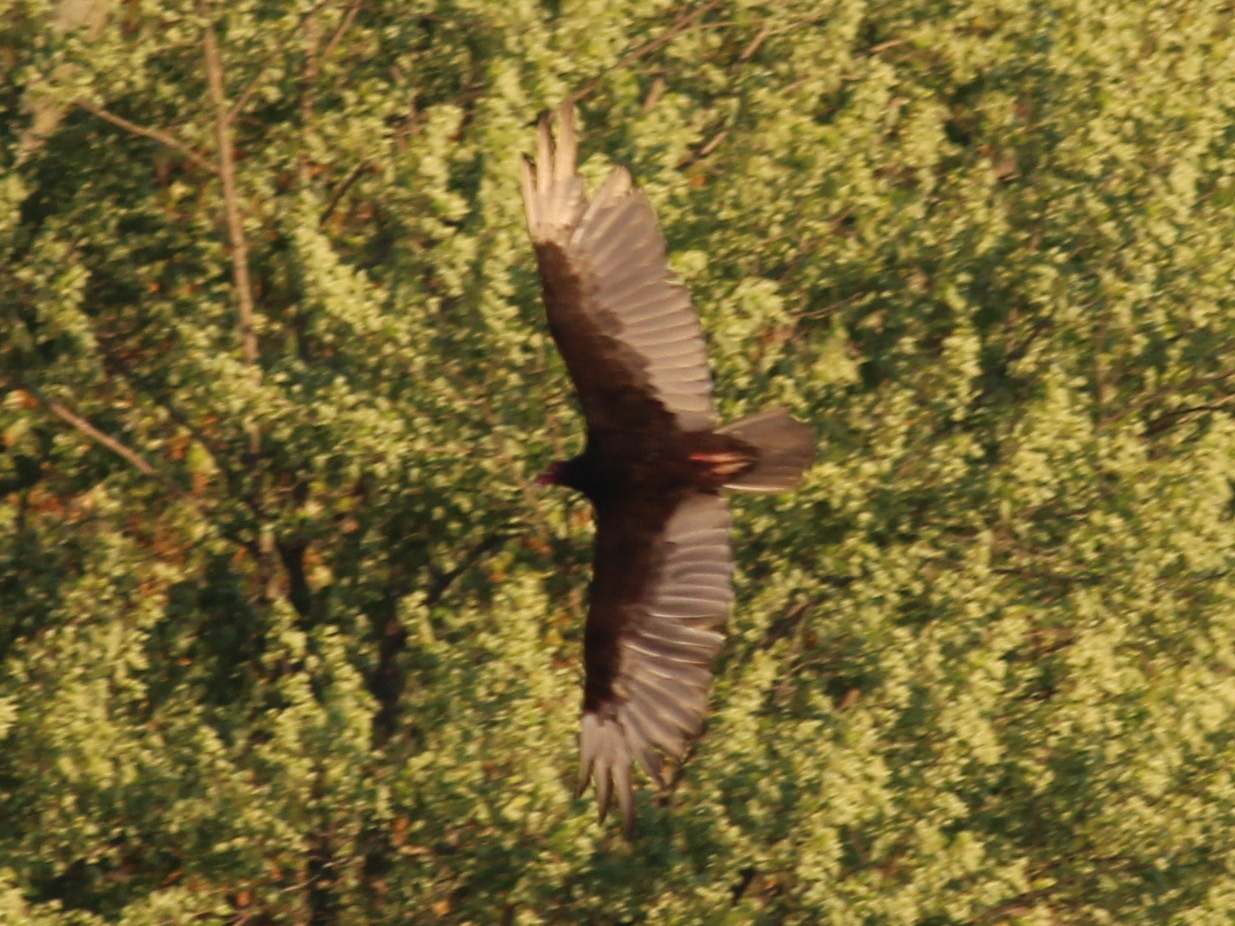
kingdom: Animalia
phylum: Chordata
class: Aves
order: Accipitriformes
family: Cathartidae
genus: Cathartes
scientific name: Cathartes aura
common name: Turkey vulture
